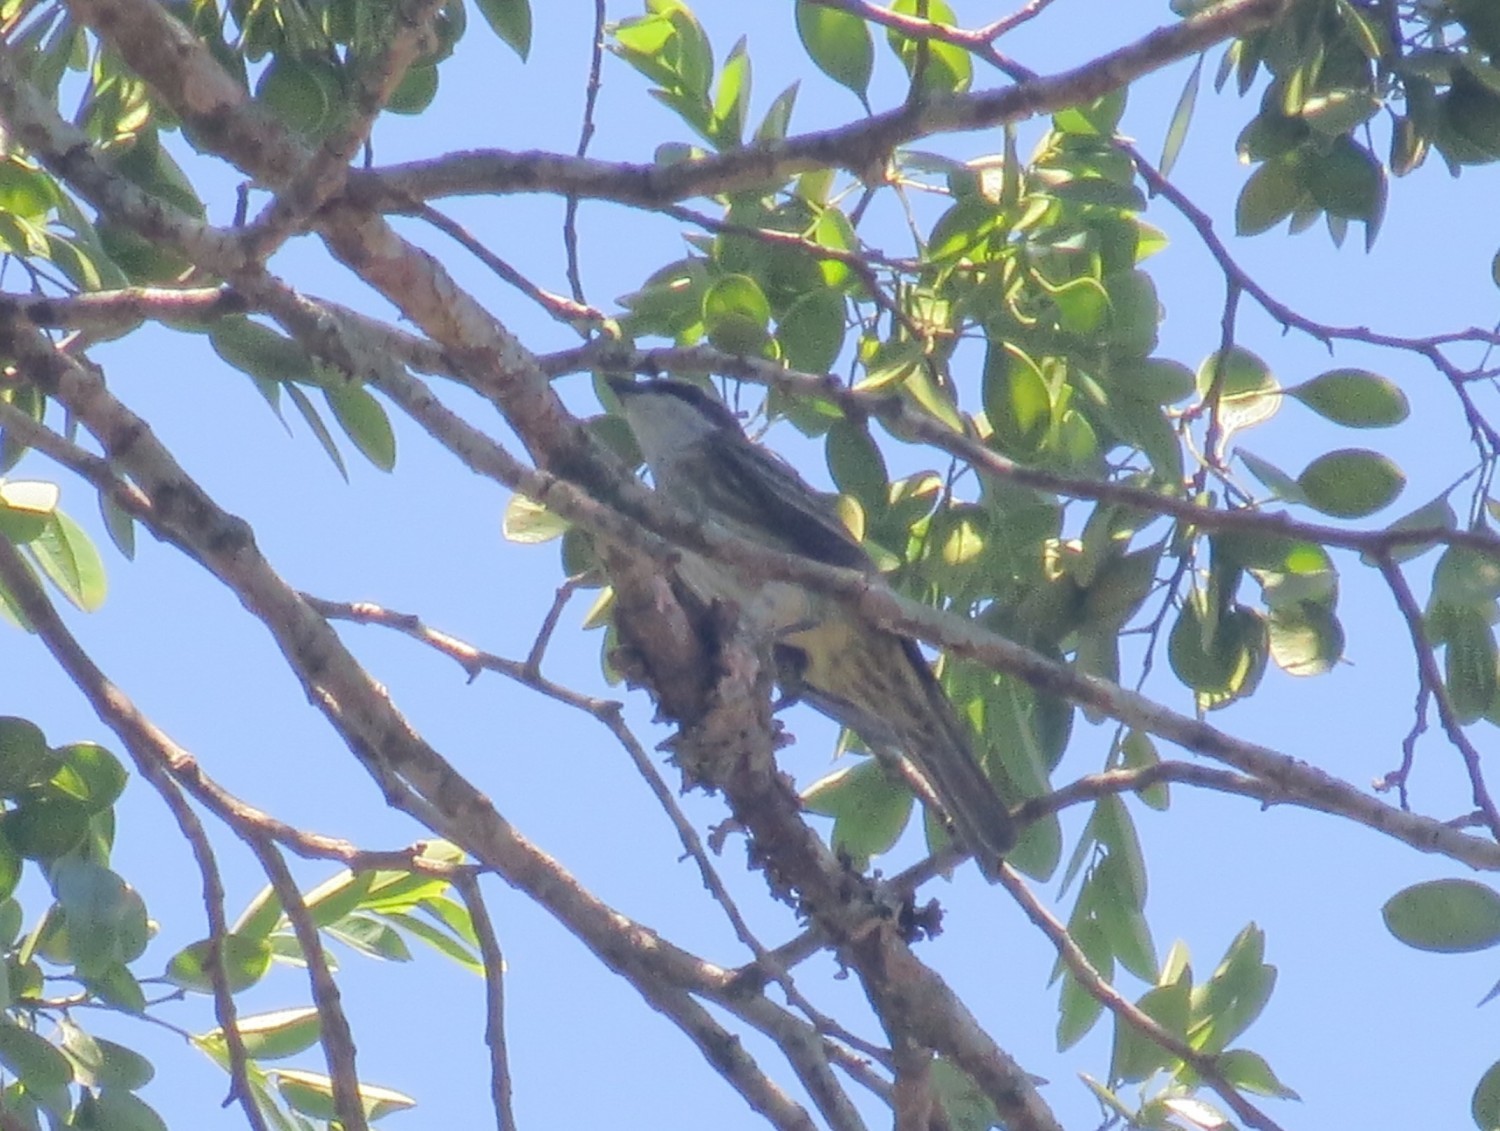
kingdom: Animalia
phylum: Chordata
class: Aves
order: Passeriformes
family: Tyrannidae
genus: Legatus
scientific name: Legatus leucophaius
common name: Piratic flycatcher
